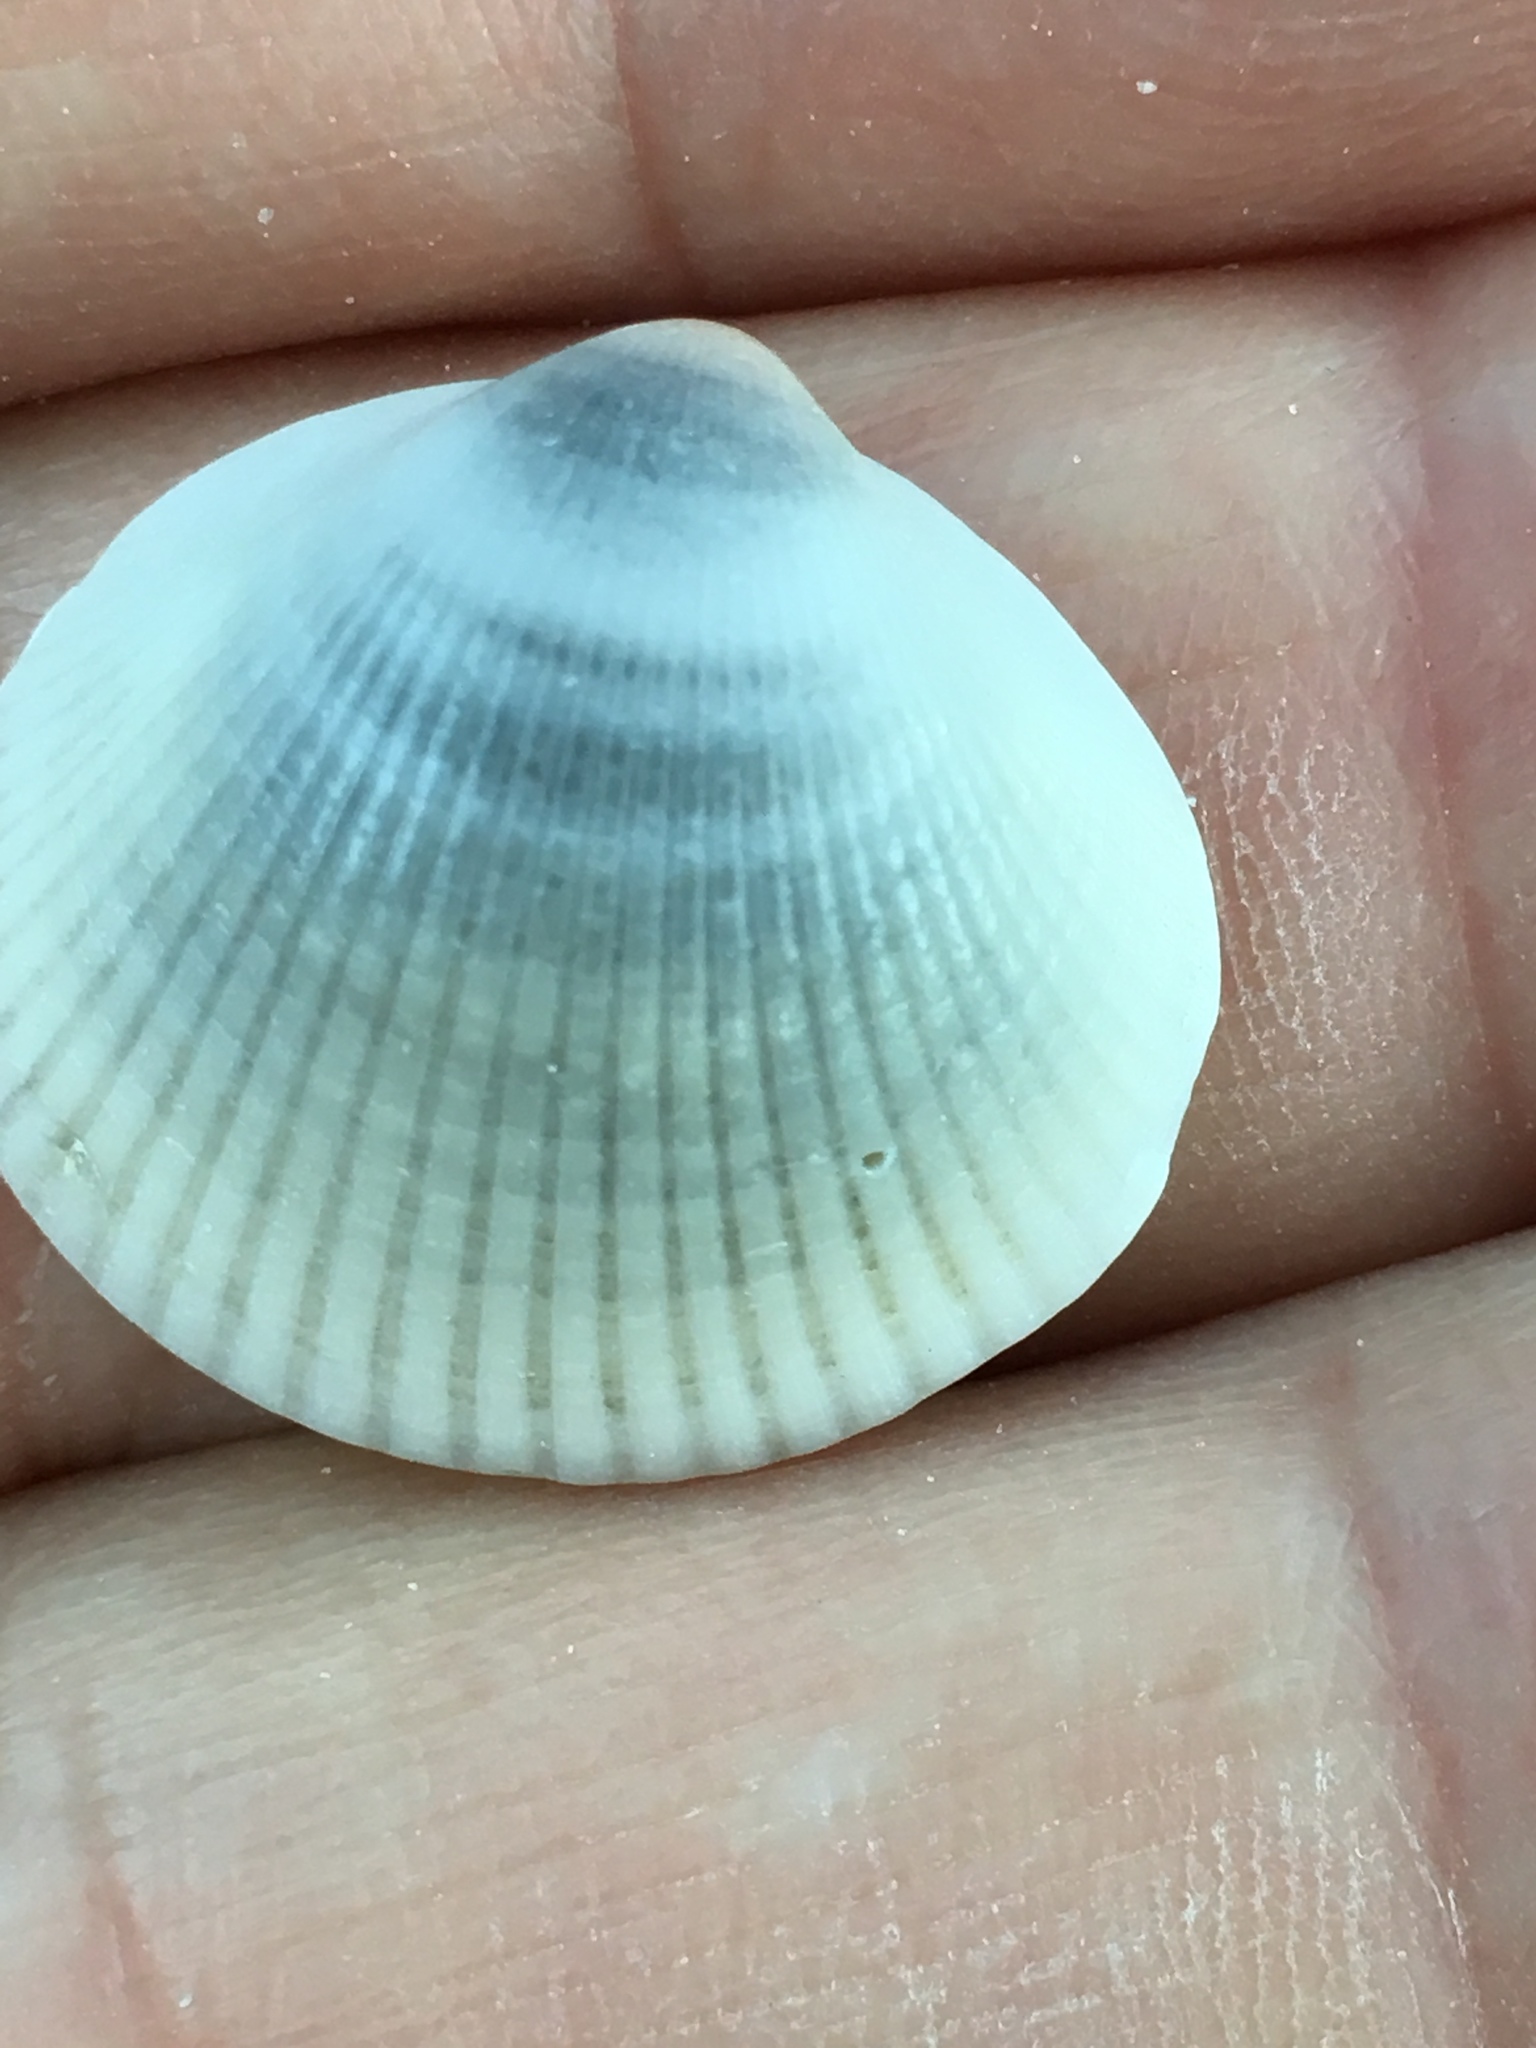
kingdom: Animalia
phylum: Mollusca
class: Bivalvia
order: Arcida
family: Glycymerididae
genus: Glycymeris
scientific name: Glycymeris spectralis
